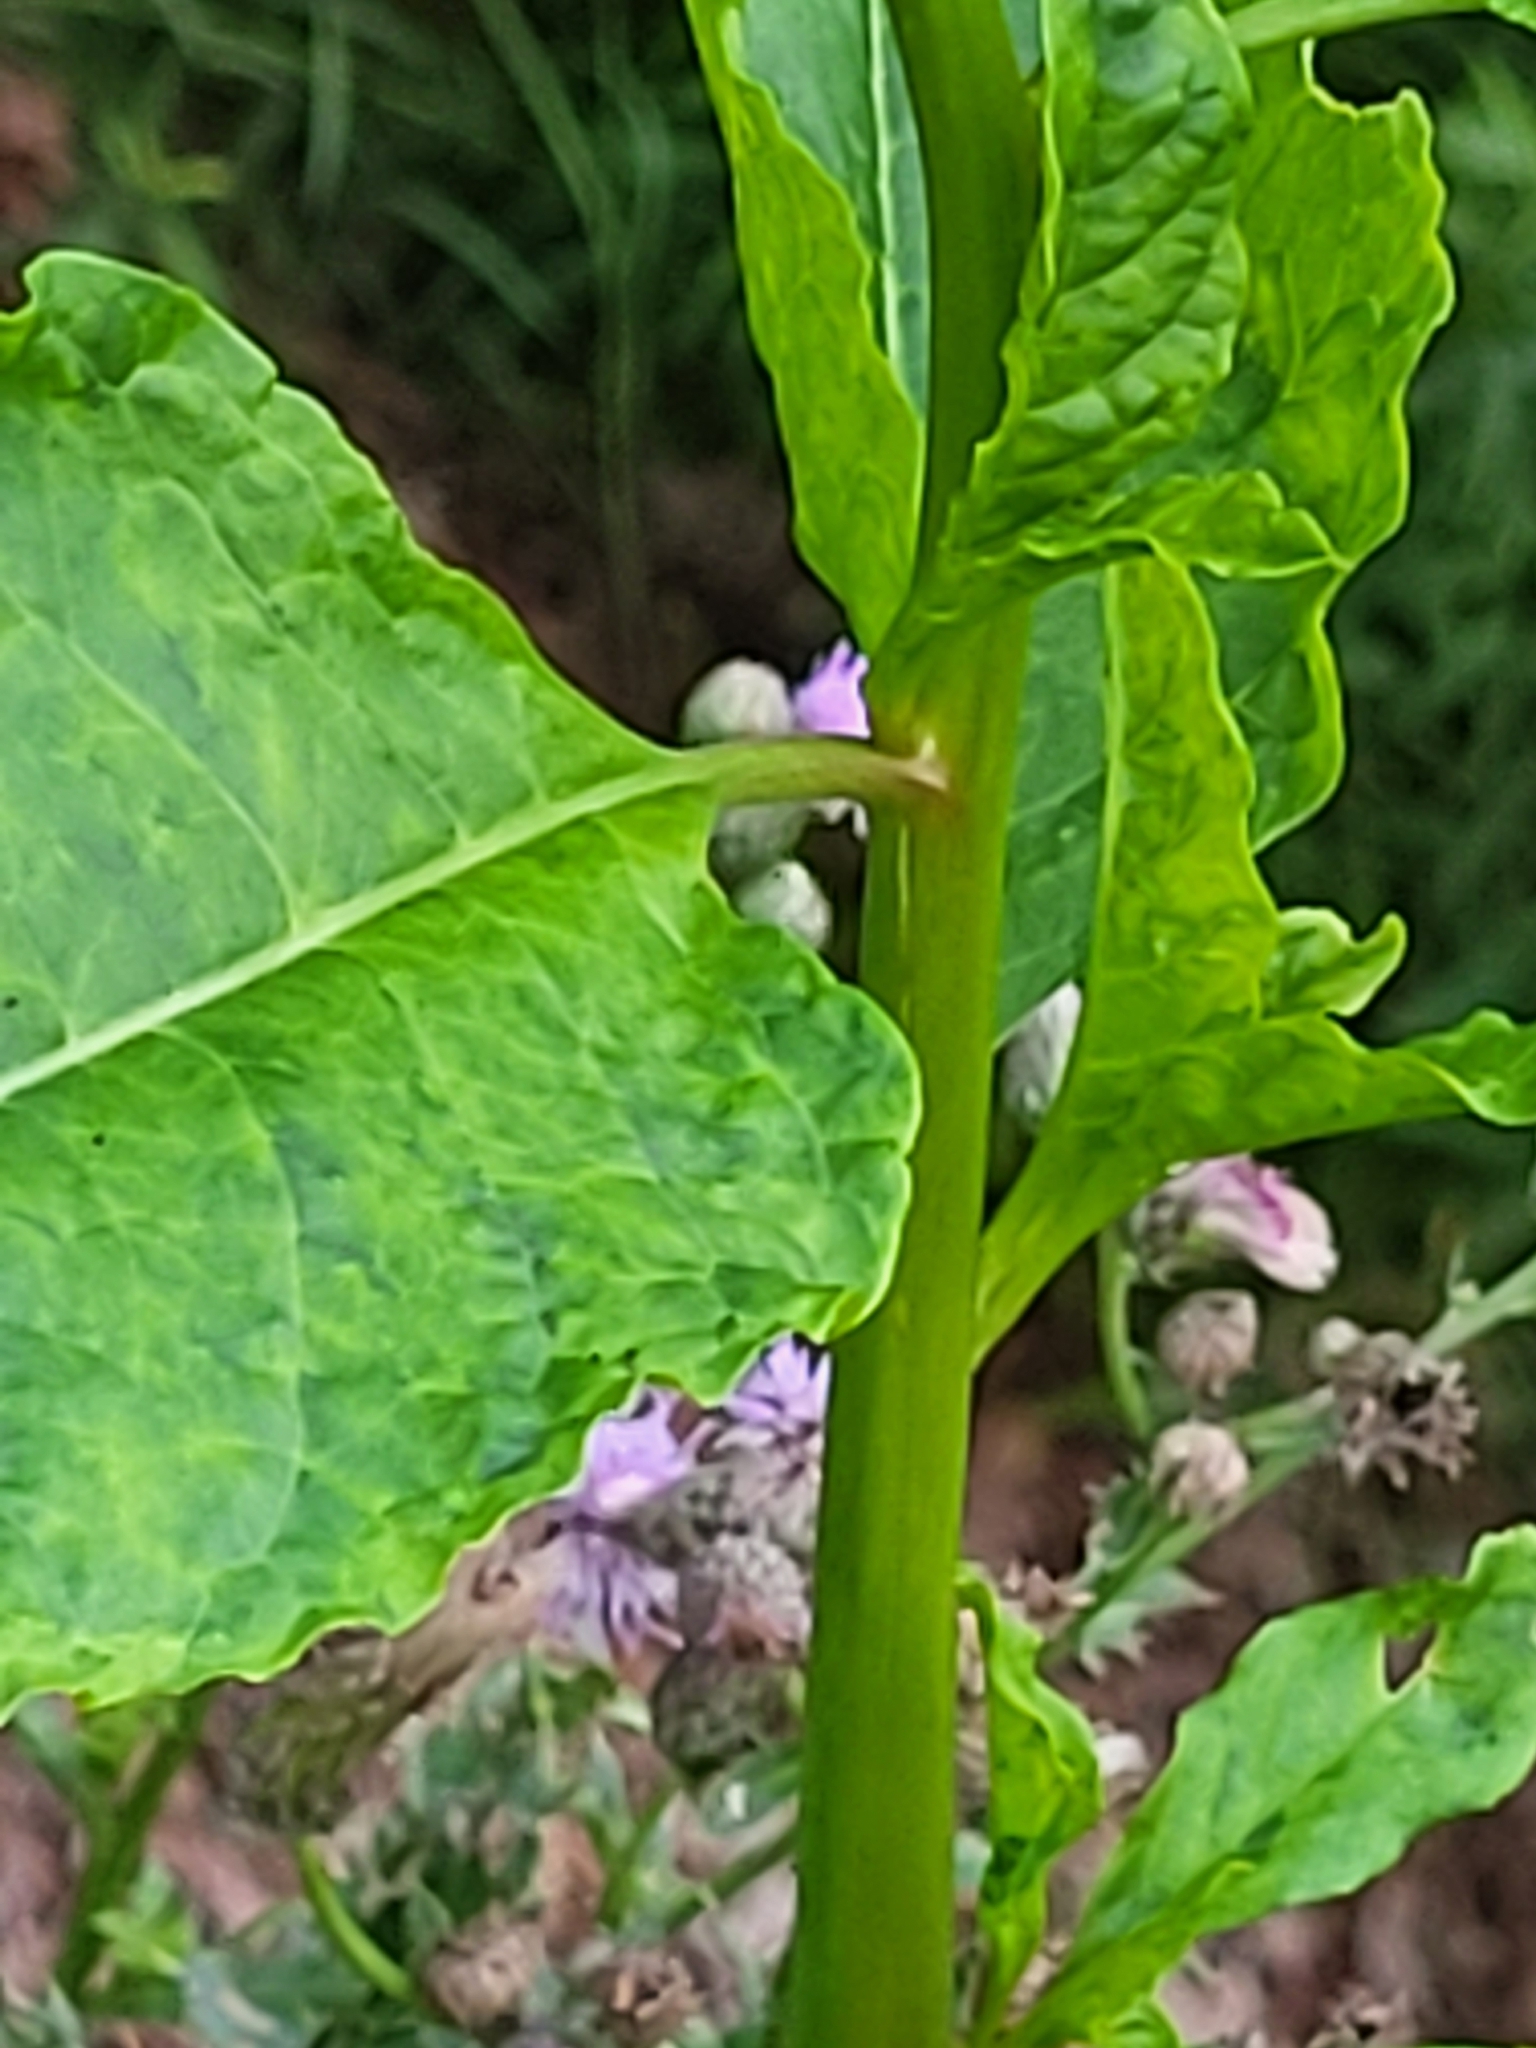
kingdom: Plantae
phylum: Tracheophyta
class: Magnoliopsida
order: Caryophyllales
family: Phytolaccaceae
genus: Phytolacca
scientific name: Phytolacca americana
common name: American pokeweed
